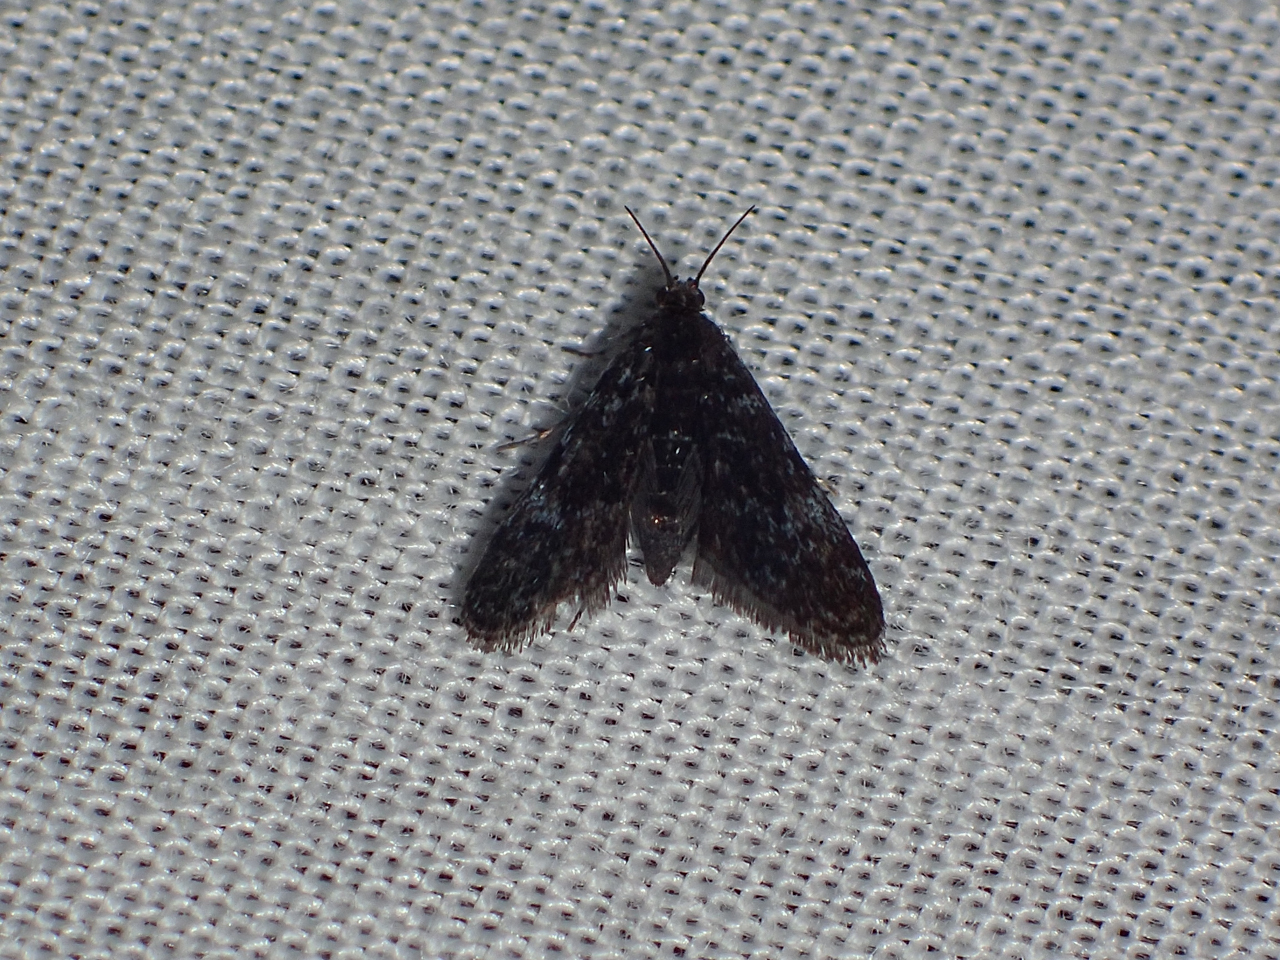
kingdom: Animalia
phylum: Arthropoda
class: Insecta
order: Lepidoptera
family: Crambidae
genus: Elophila
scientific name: Elophila tinealis
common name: Black duckweed moth
